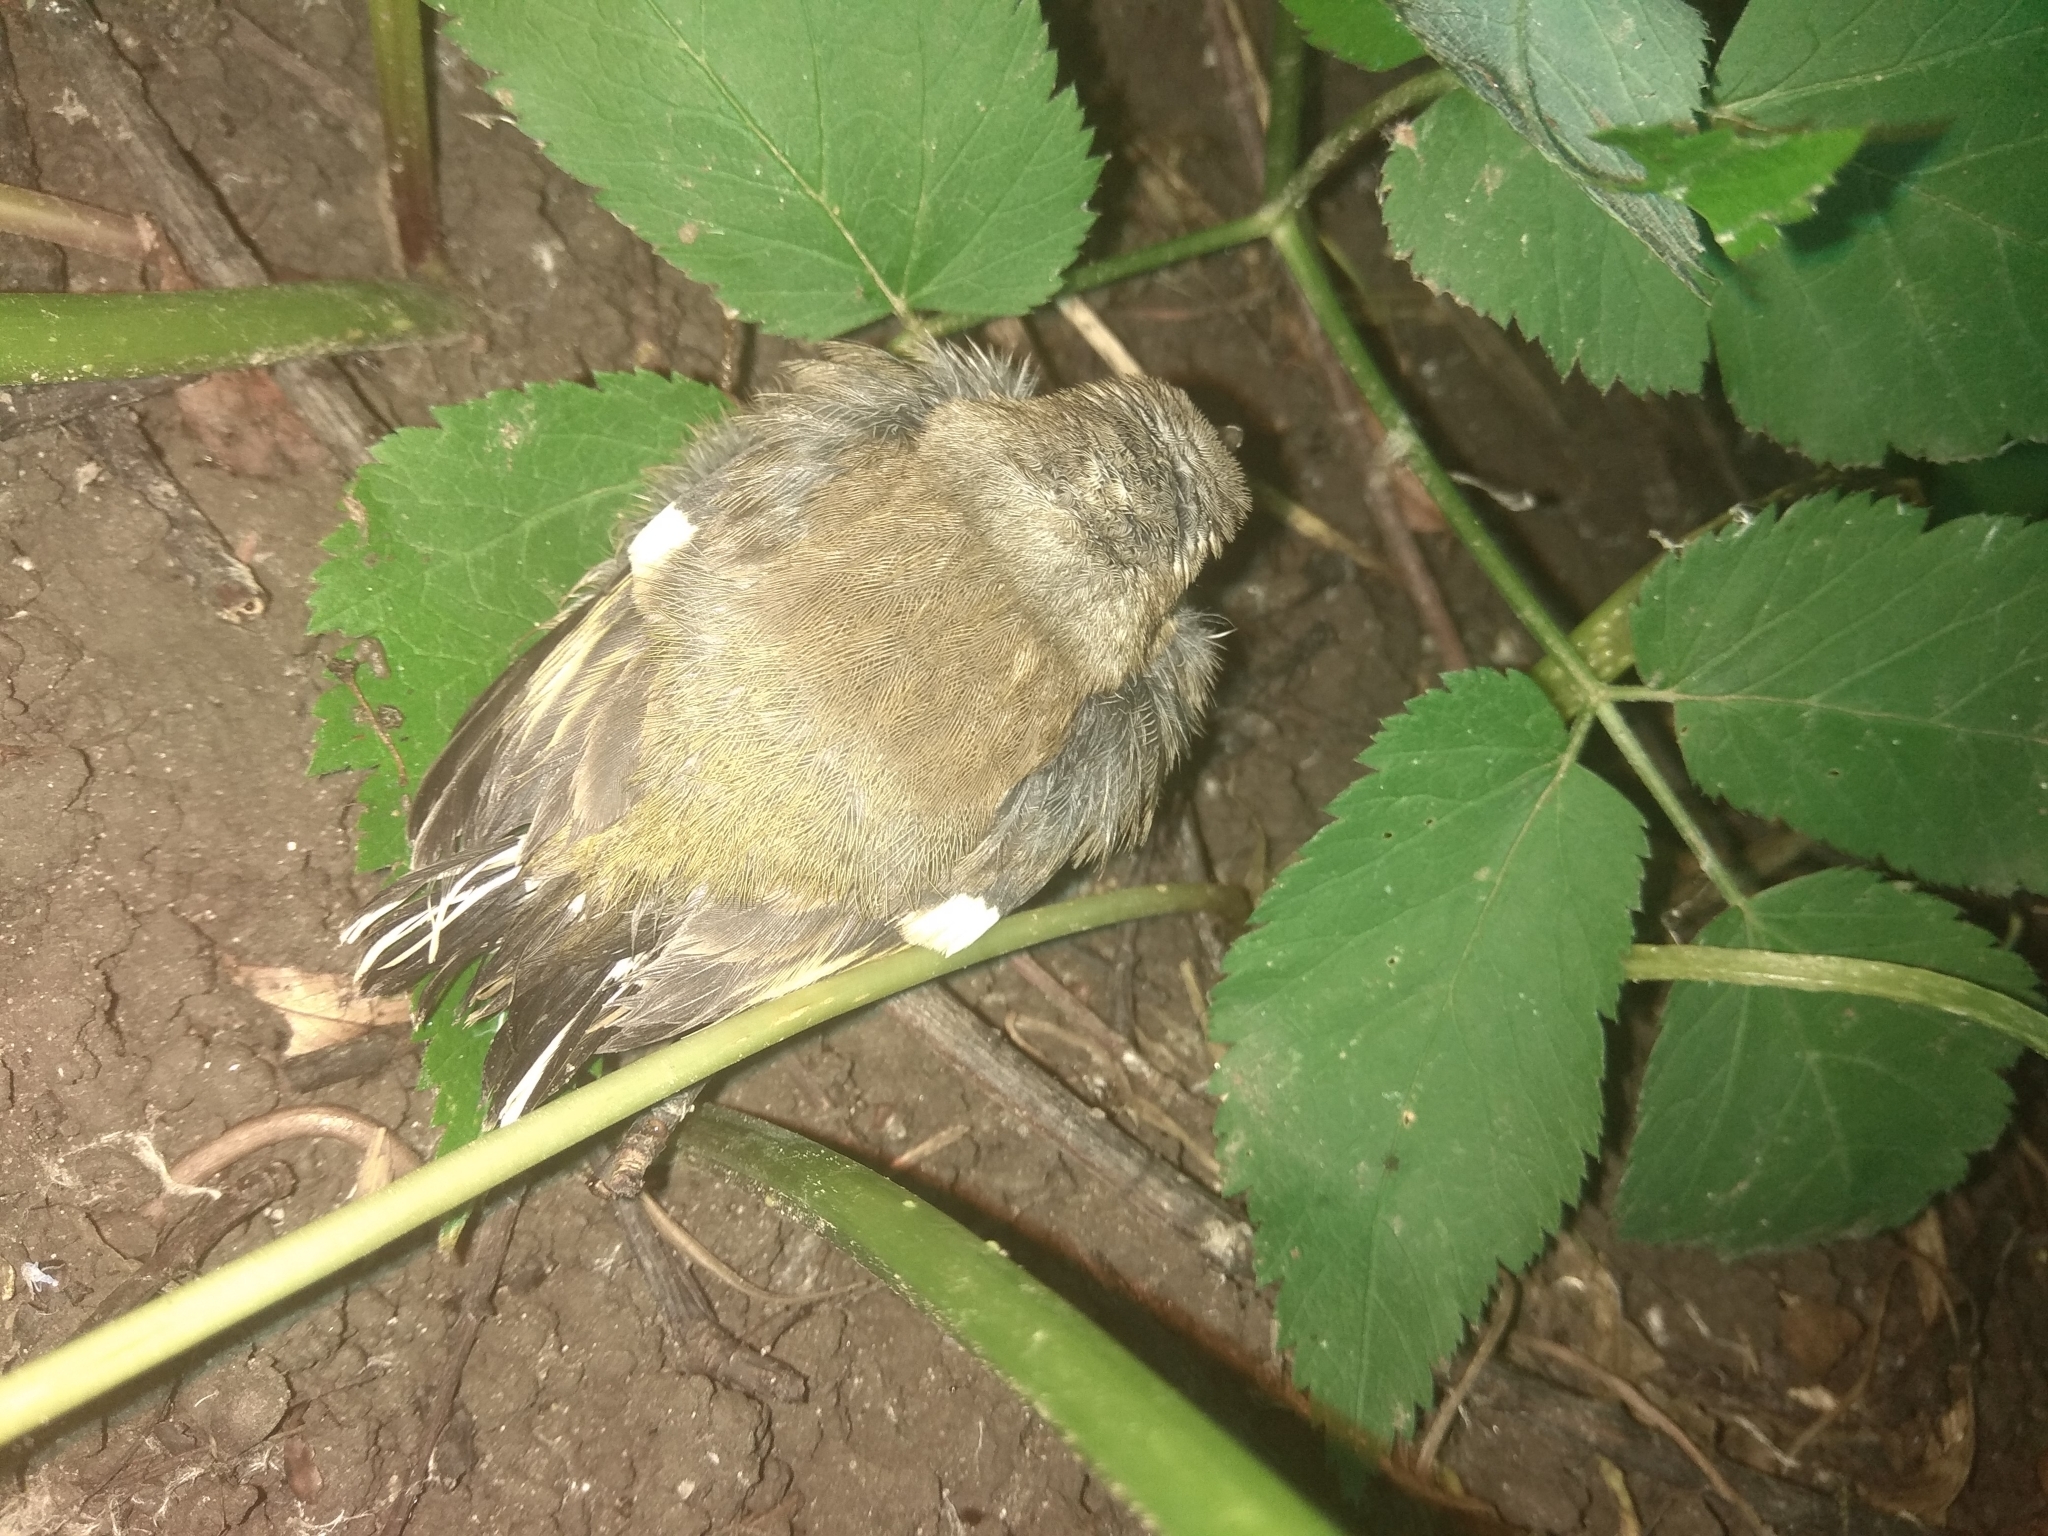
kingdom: Animalia
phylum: Chordata
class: Aves
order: Passeriformes
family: Fringillidae
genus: Fringilla
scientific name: Fringilla coelebs
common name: Common chaffinch
